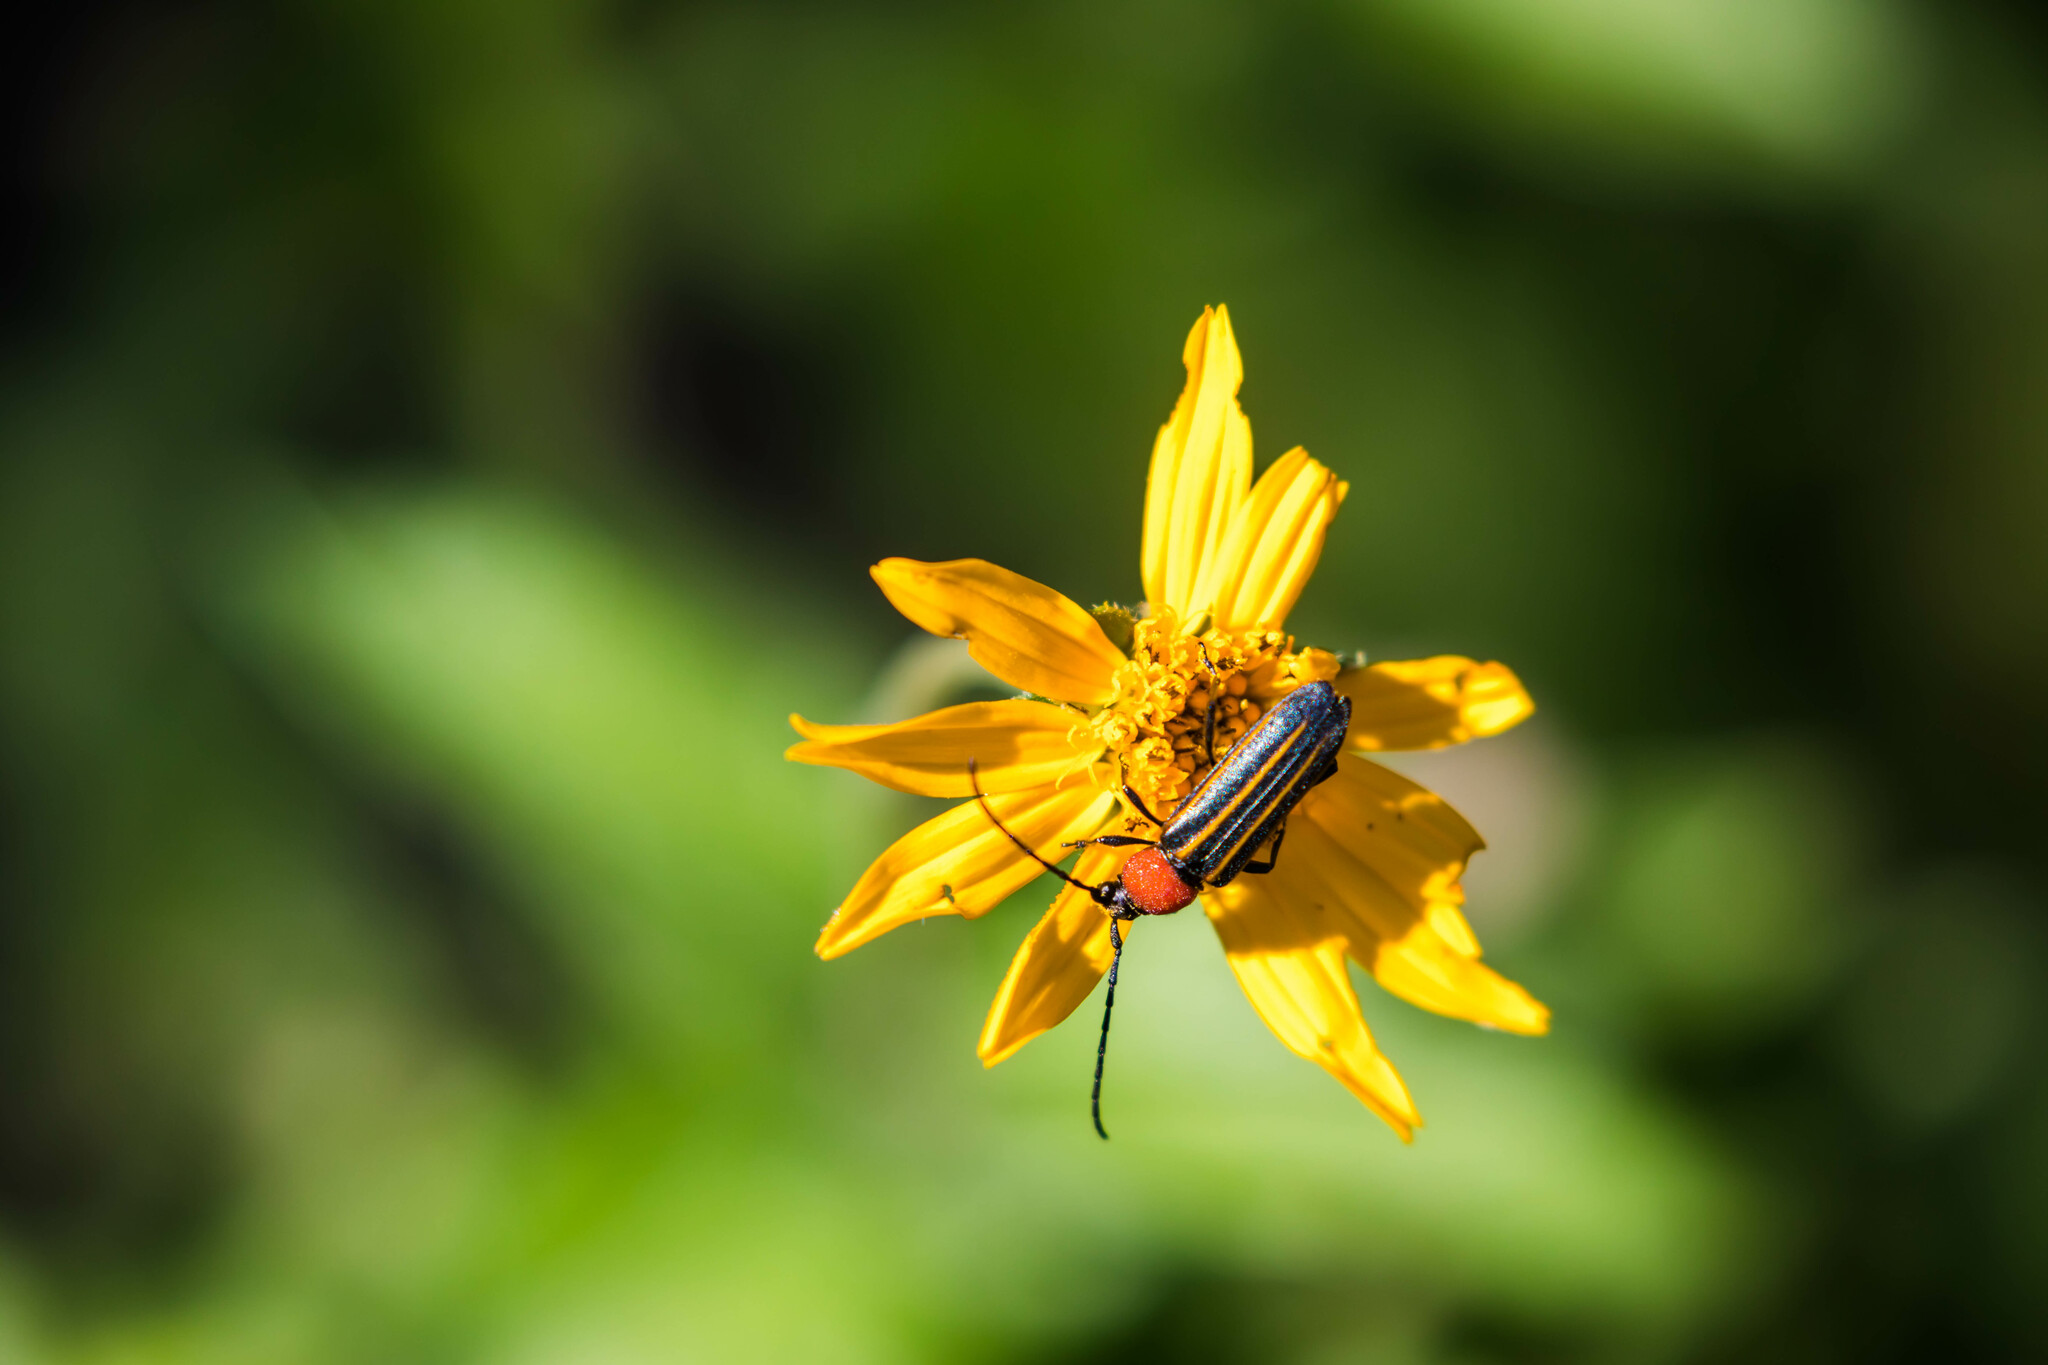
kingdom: Animalia
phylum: Arthropoda
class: Insecta
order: Coleoptera
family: Cerambycidae
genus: Mannophorus
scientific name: Mannophorus laetus
